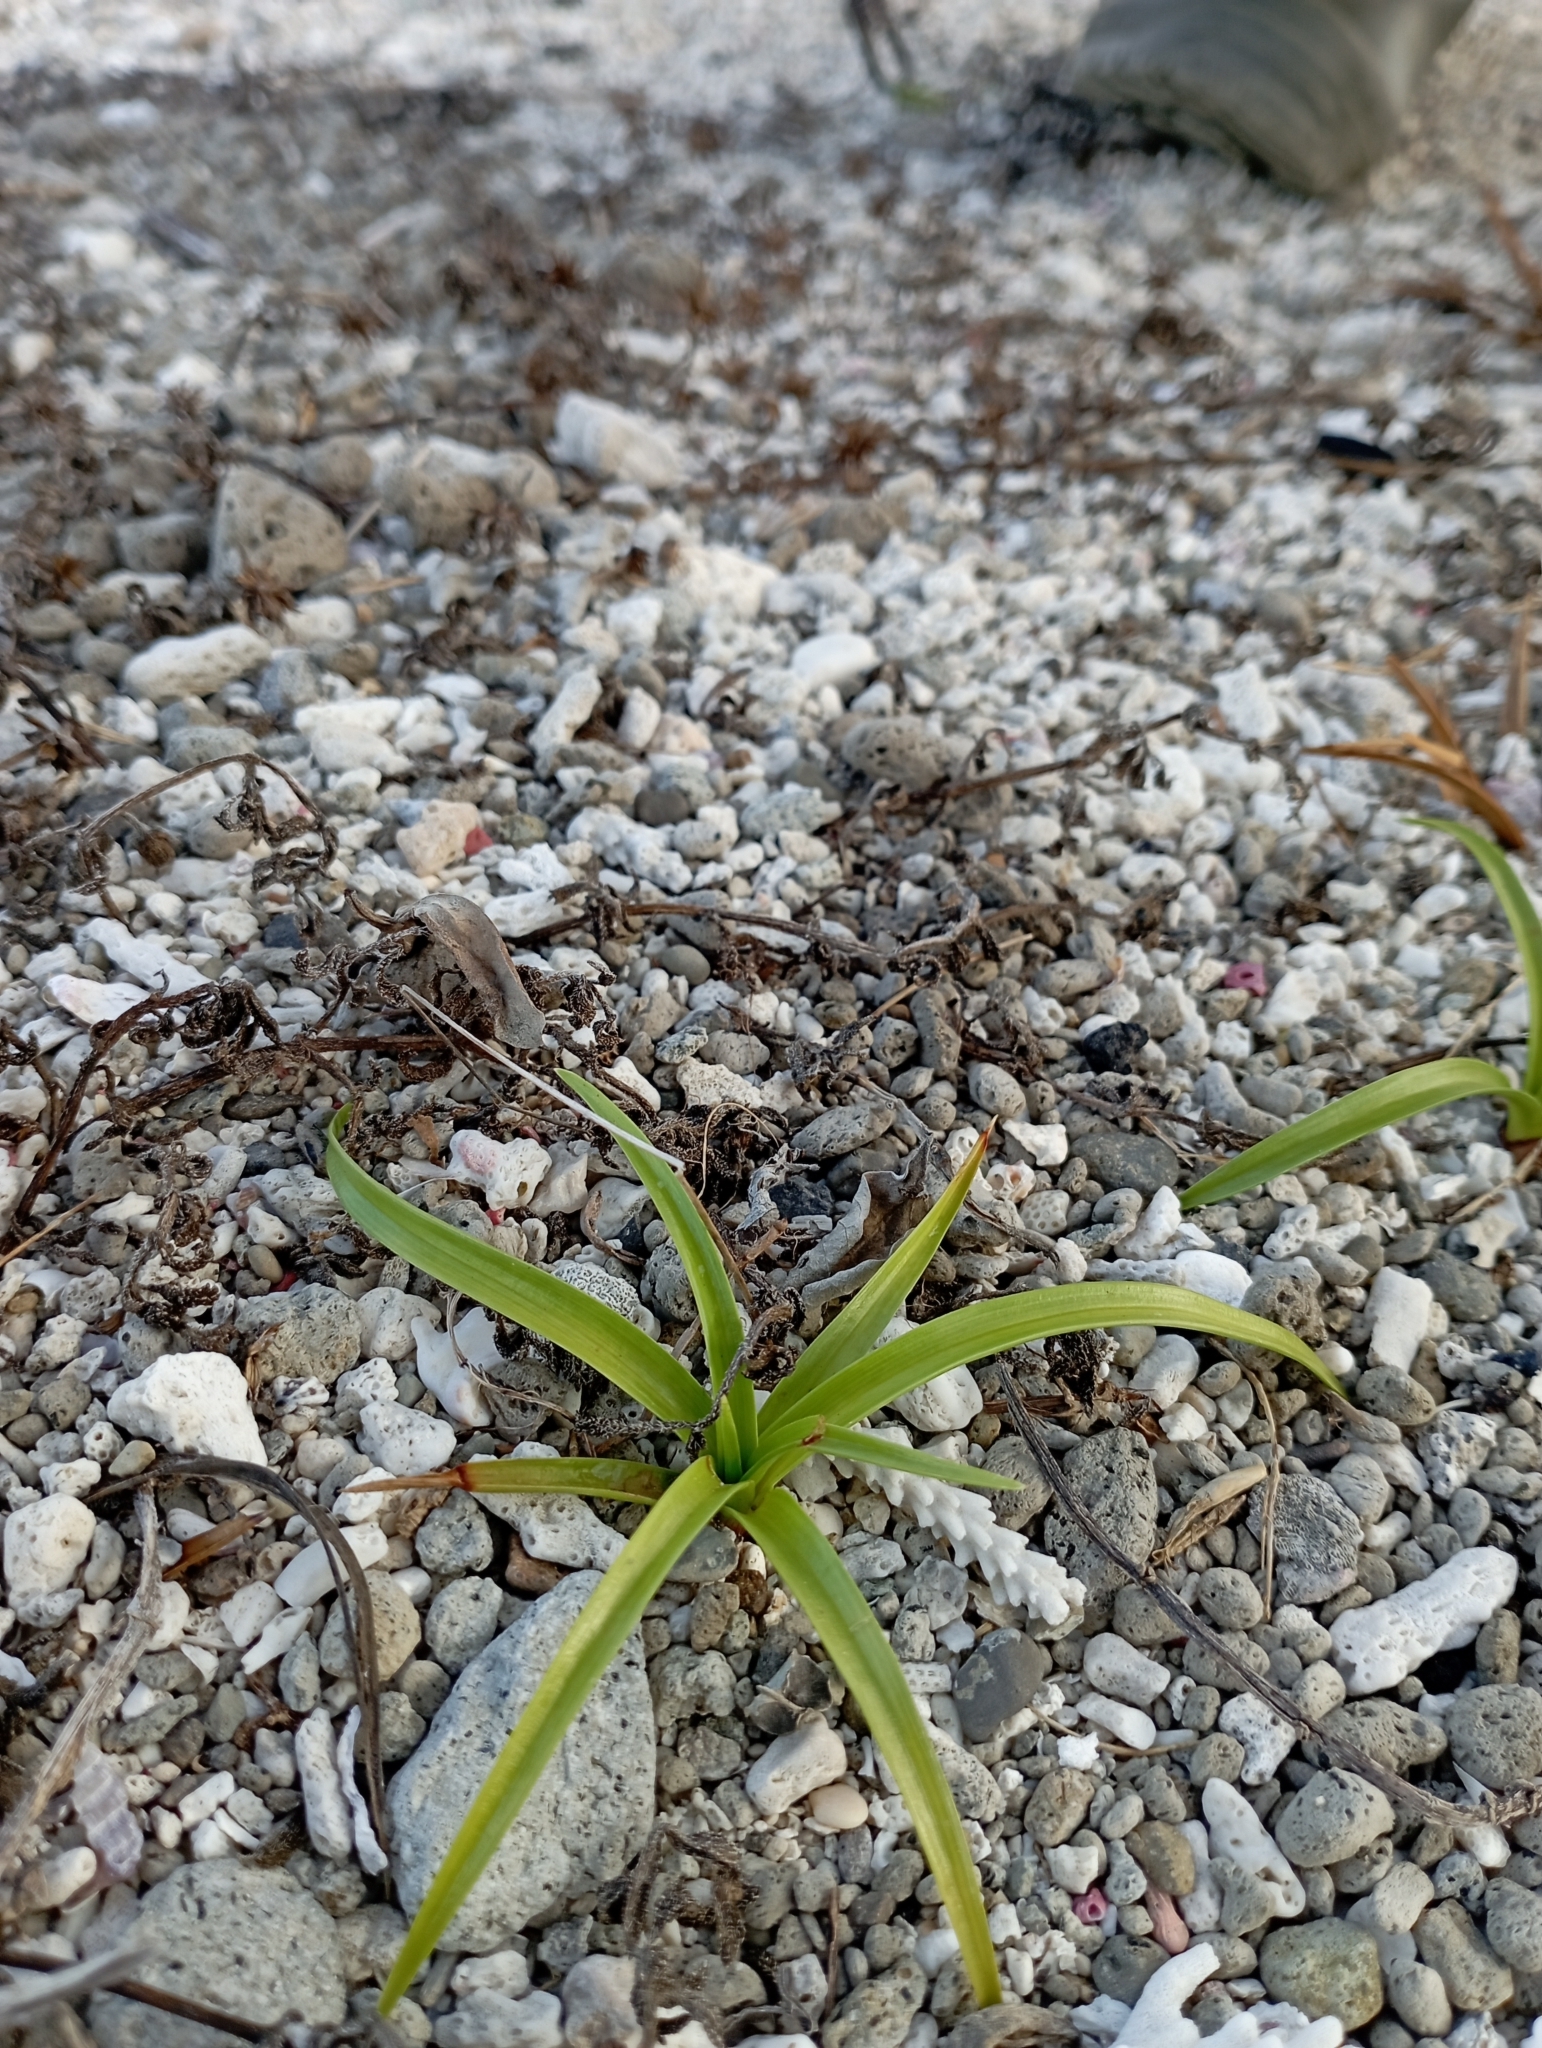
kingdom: Plantae
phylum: Tracheophyta
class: Liliopsida
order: Poales
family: Cyperaceae
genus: Cyperus
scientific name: Cyperus pedunculatus
